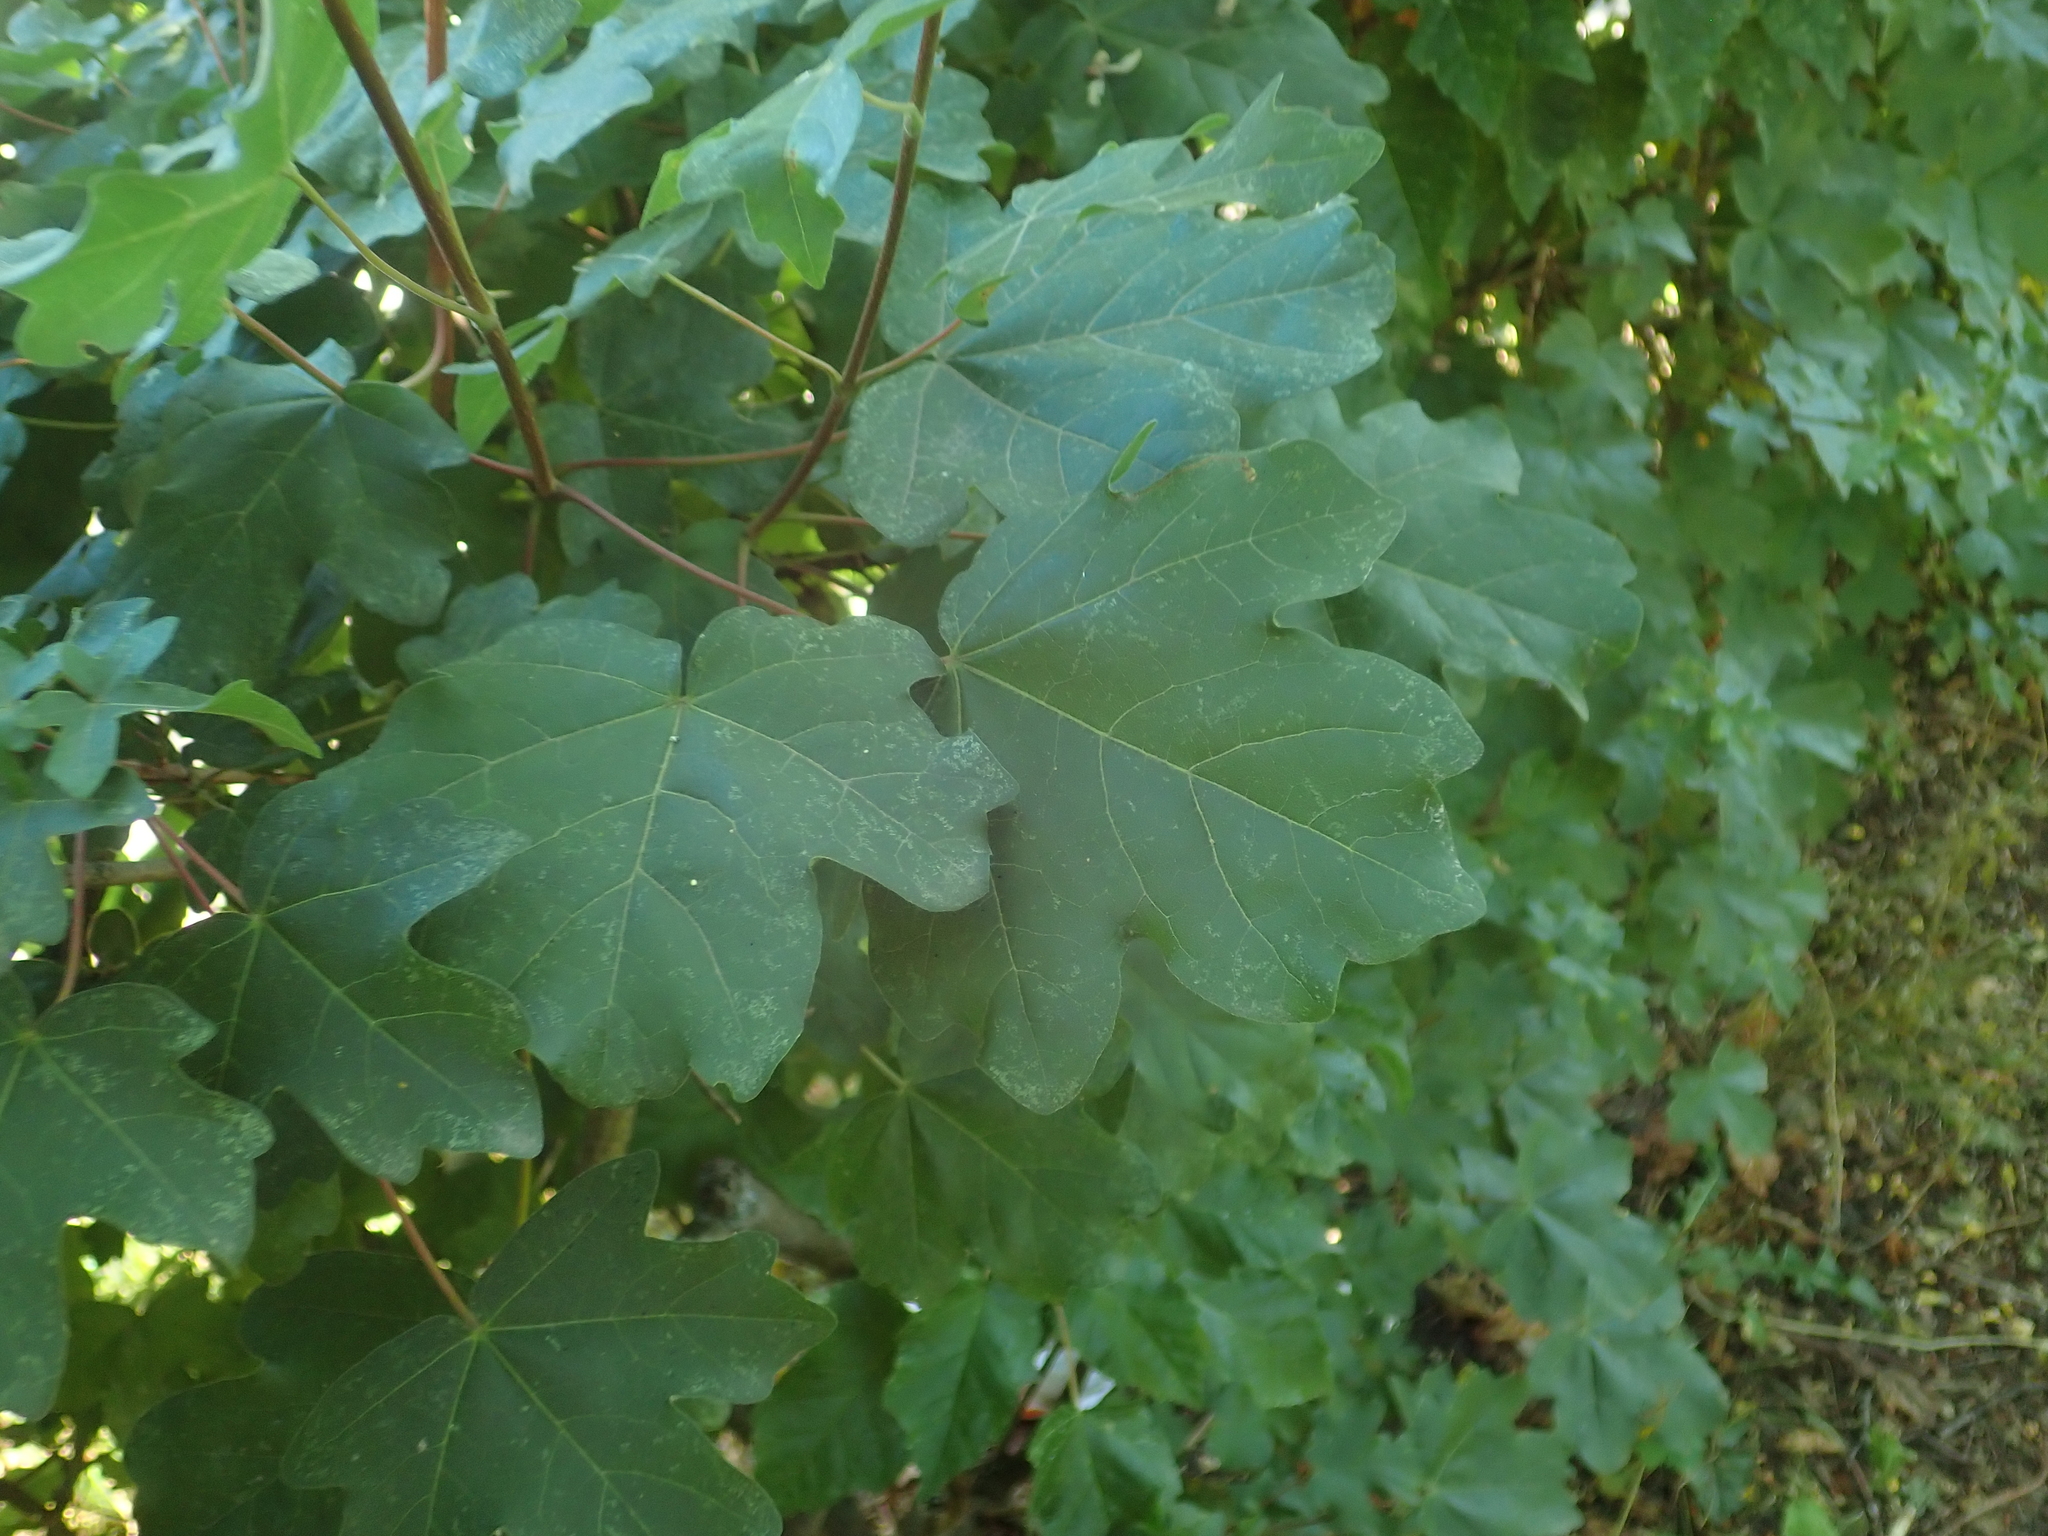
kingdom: Plantae
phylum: Tracheophyta
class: Magnoliopsida
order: Sapindales
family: Sapindaceae
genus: Acer
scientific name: Acer campestre
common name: Field maple
